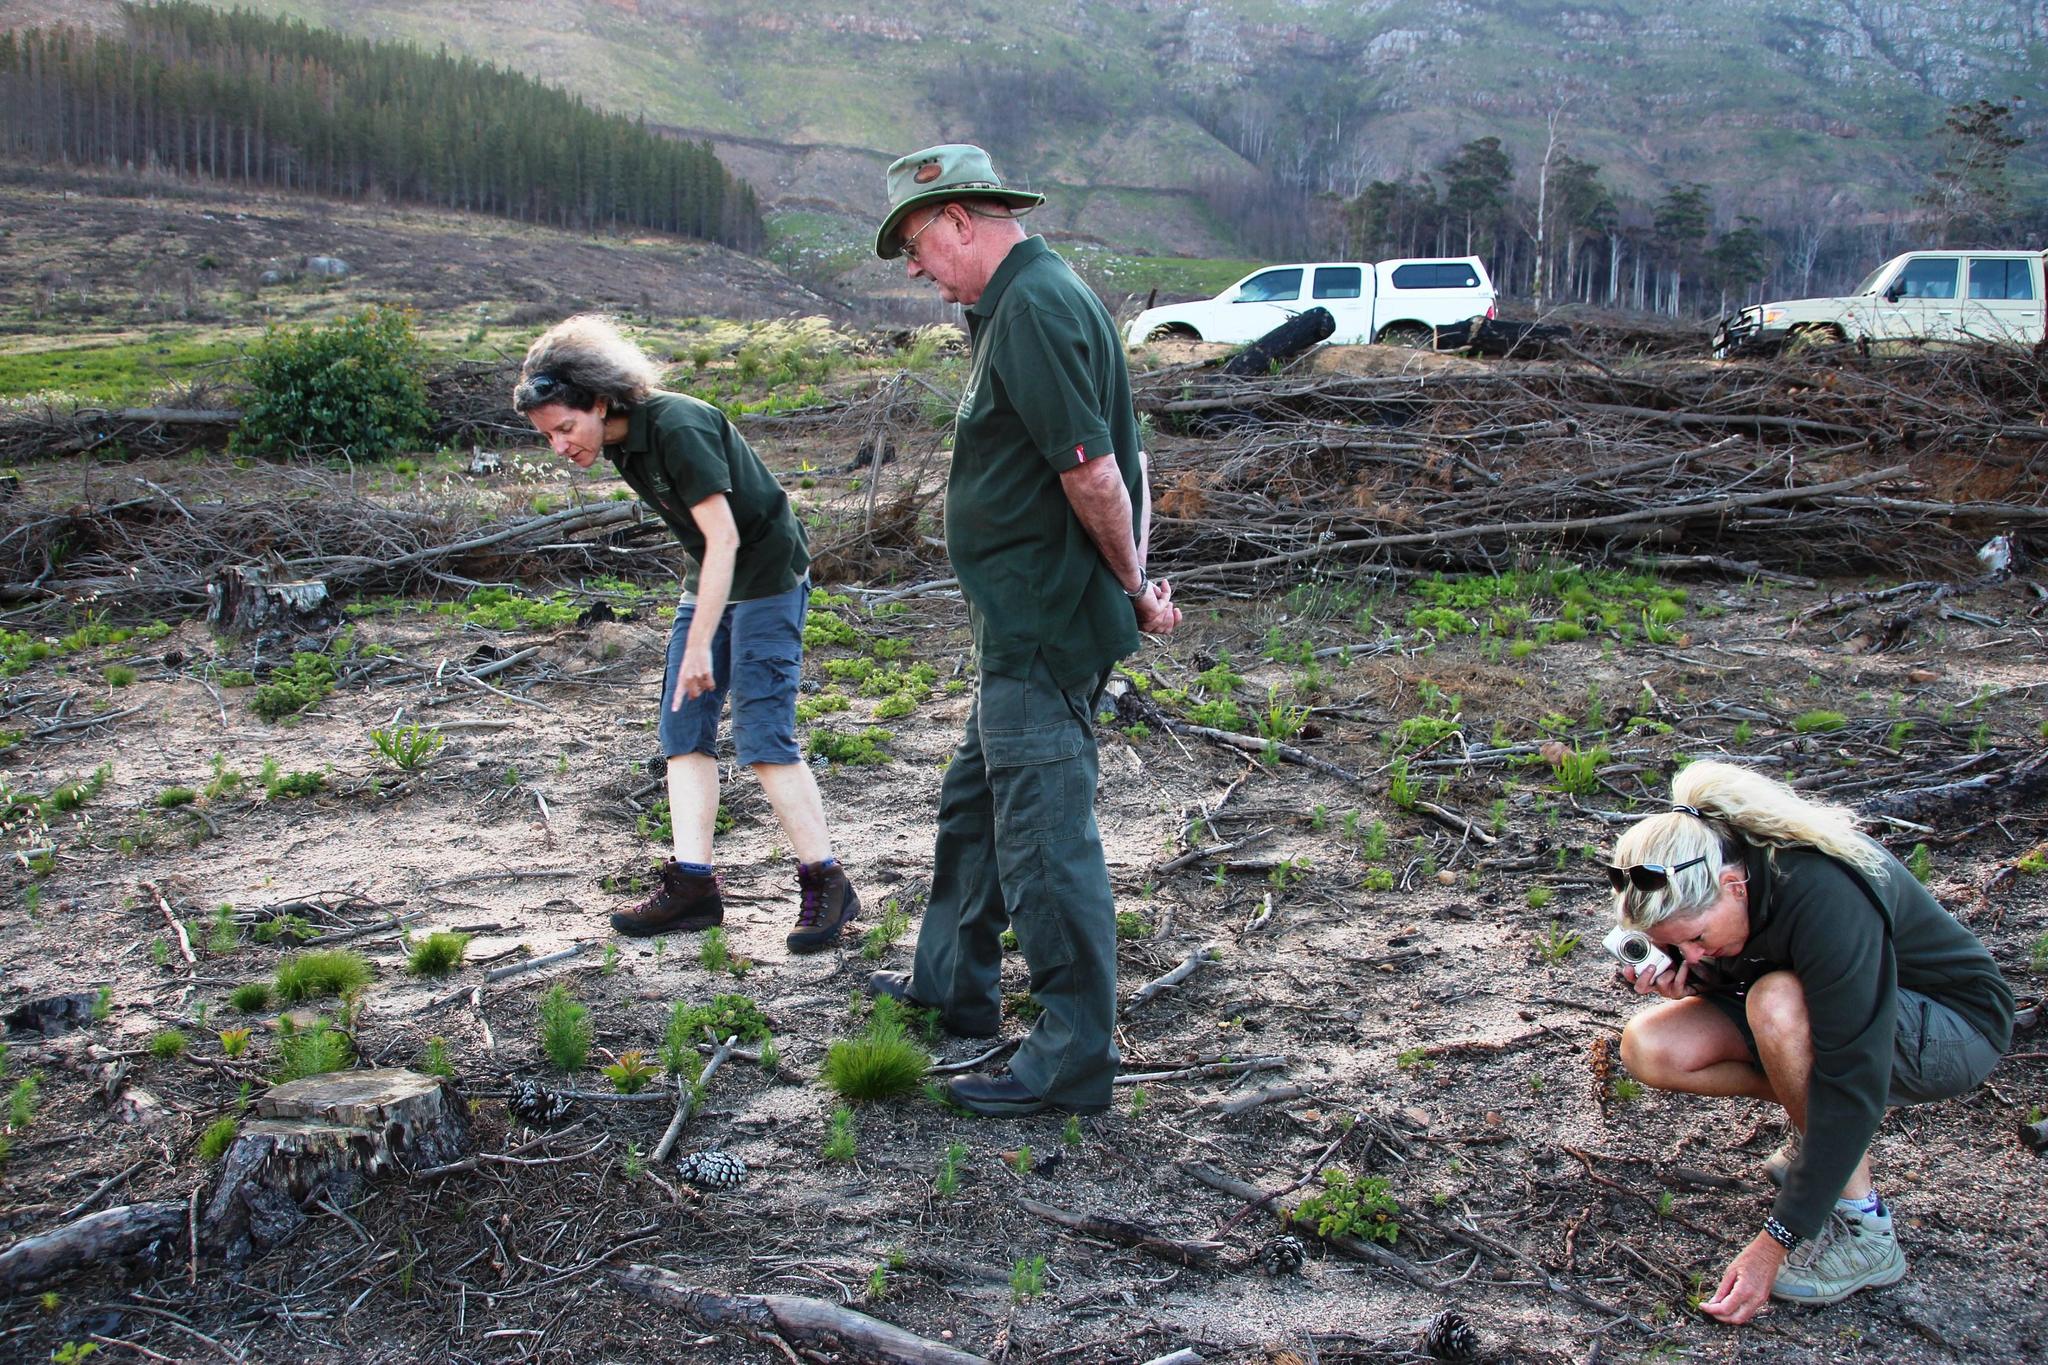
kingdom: Plantae
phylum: Tracheophyta
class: Magnoliopsida
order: Proteales
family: Proteaceae
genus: Protea
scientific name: Protea lepidocarpodendron
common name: Black-bearded protea
